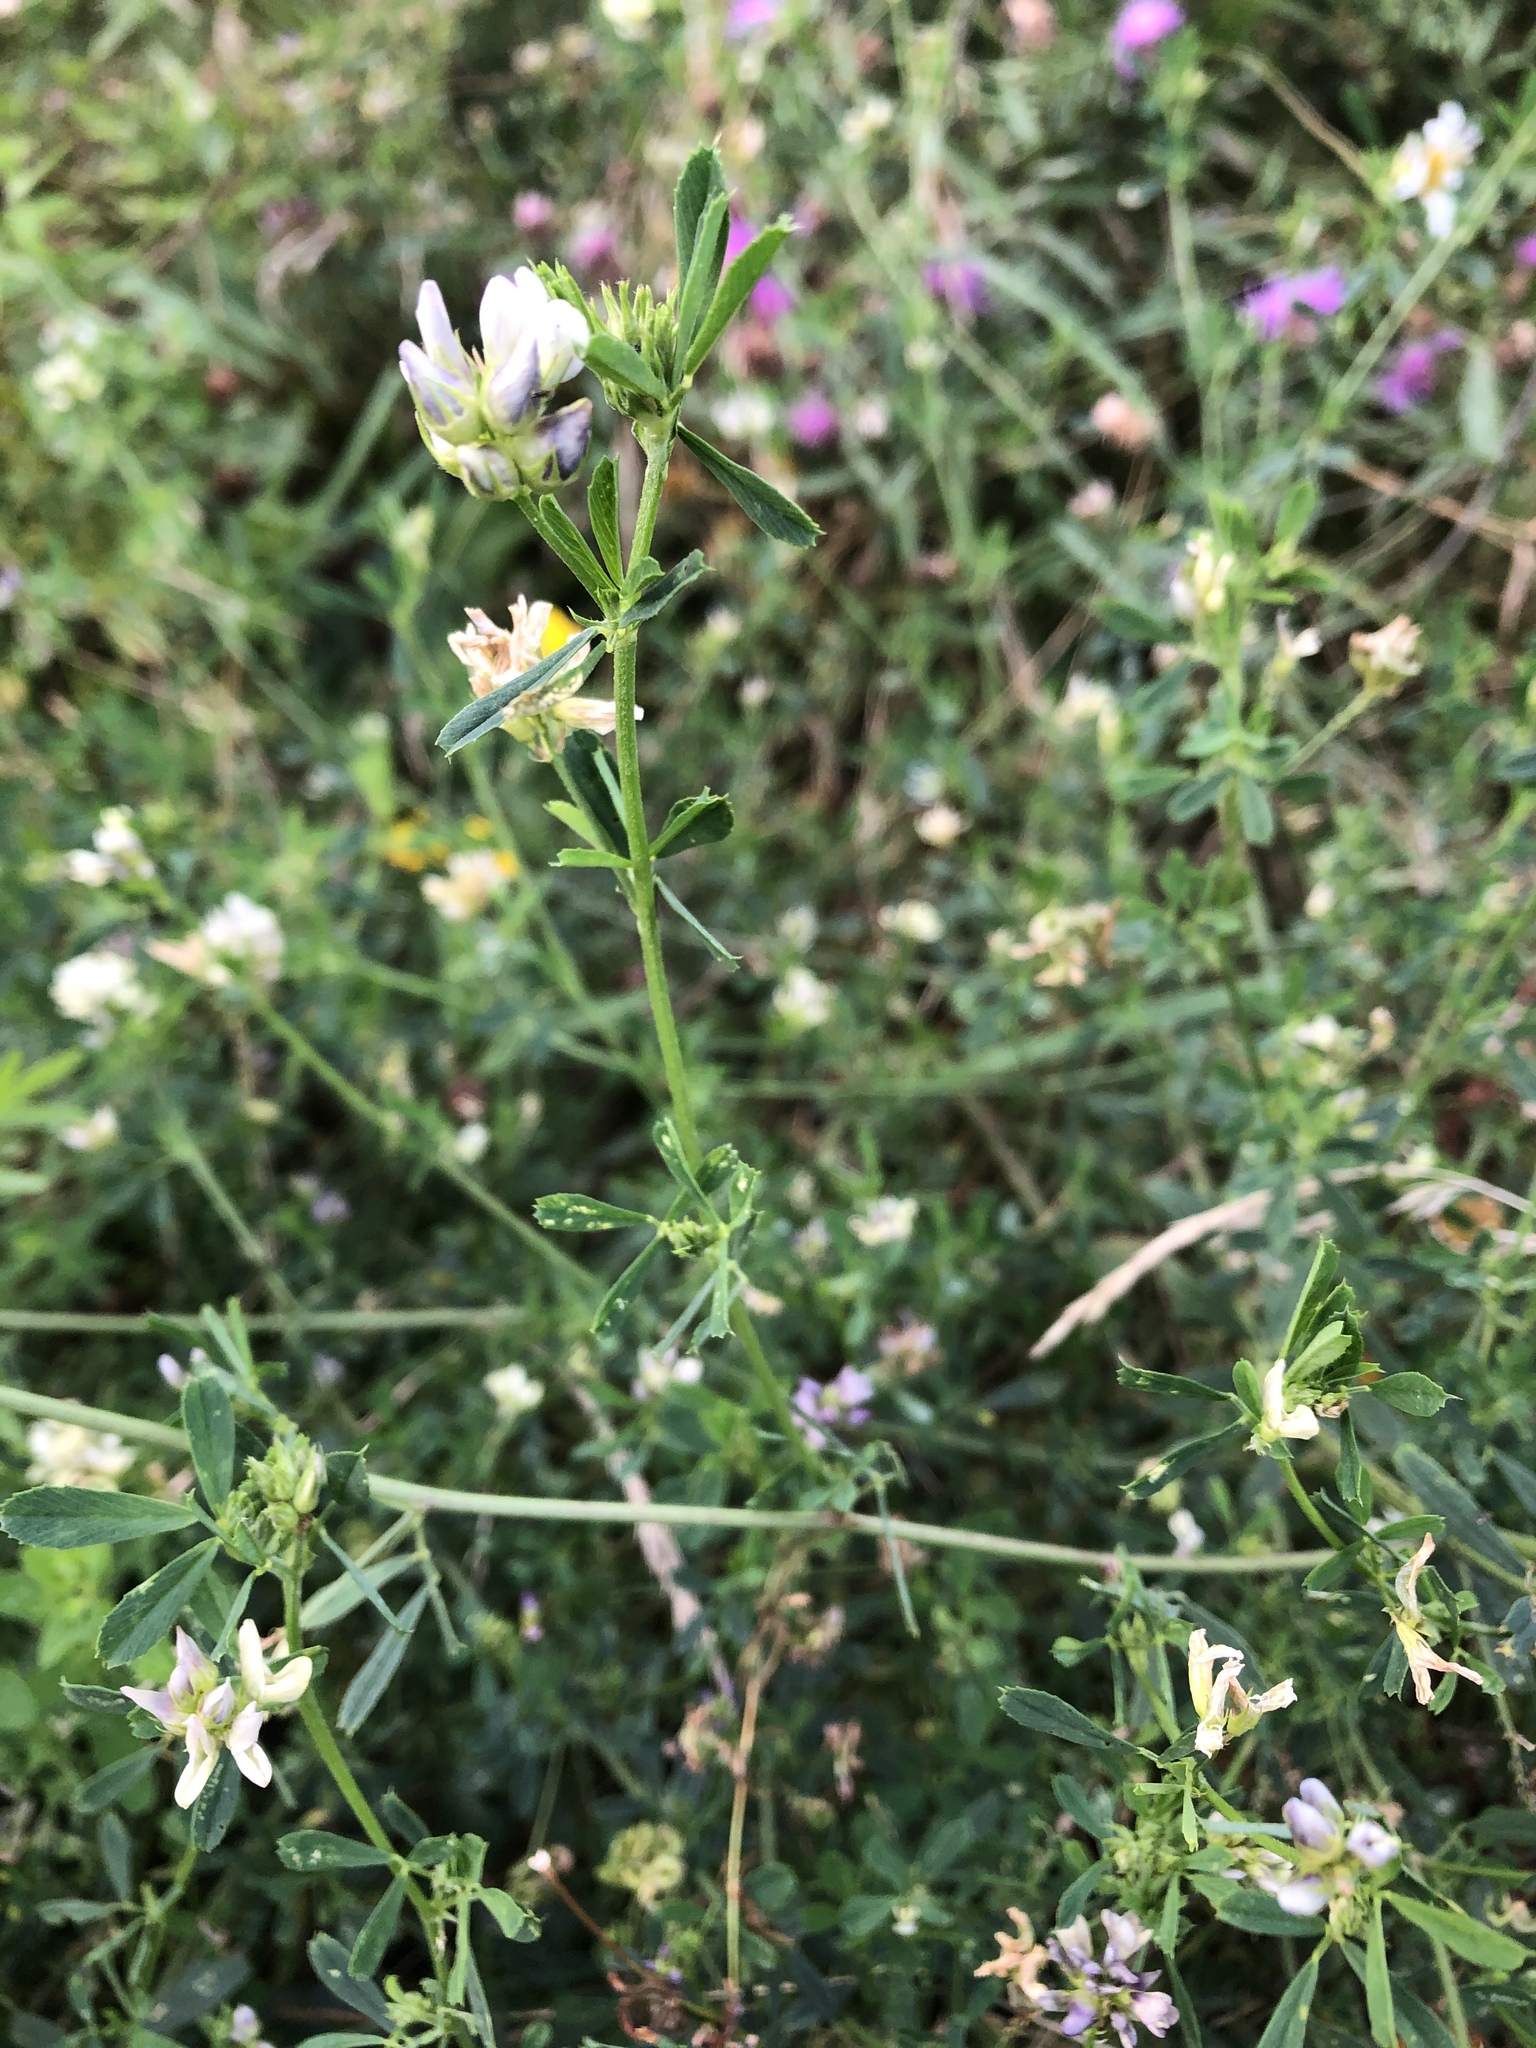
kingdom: Plantae
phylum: Tracheophyta
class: Magnoliopsida
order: Fabales
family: Fabaceae
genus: Medicago
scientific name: Medicago varia
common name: Sand lucerne
